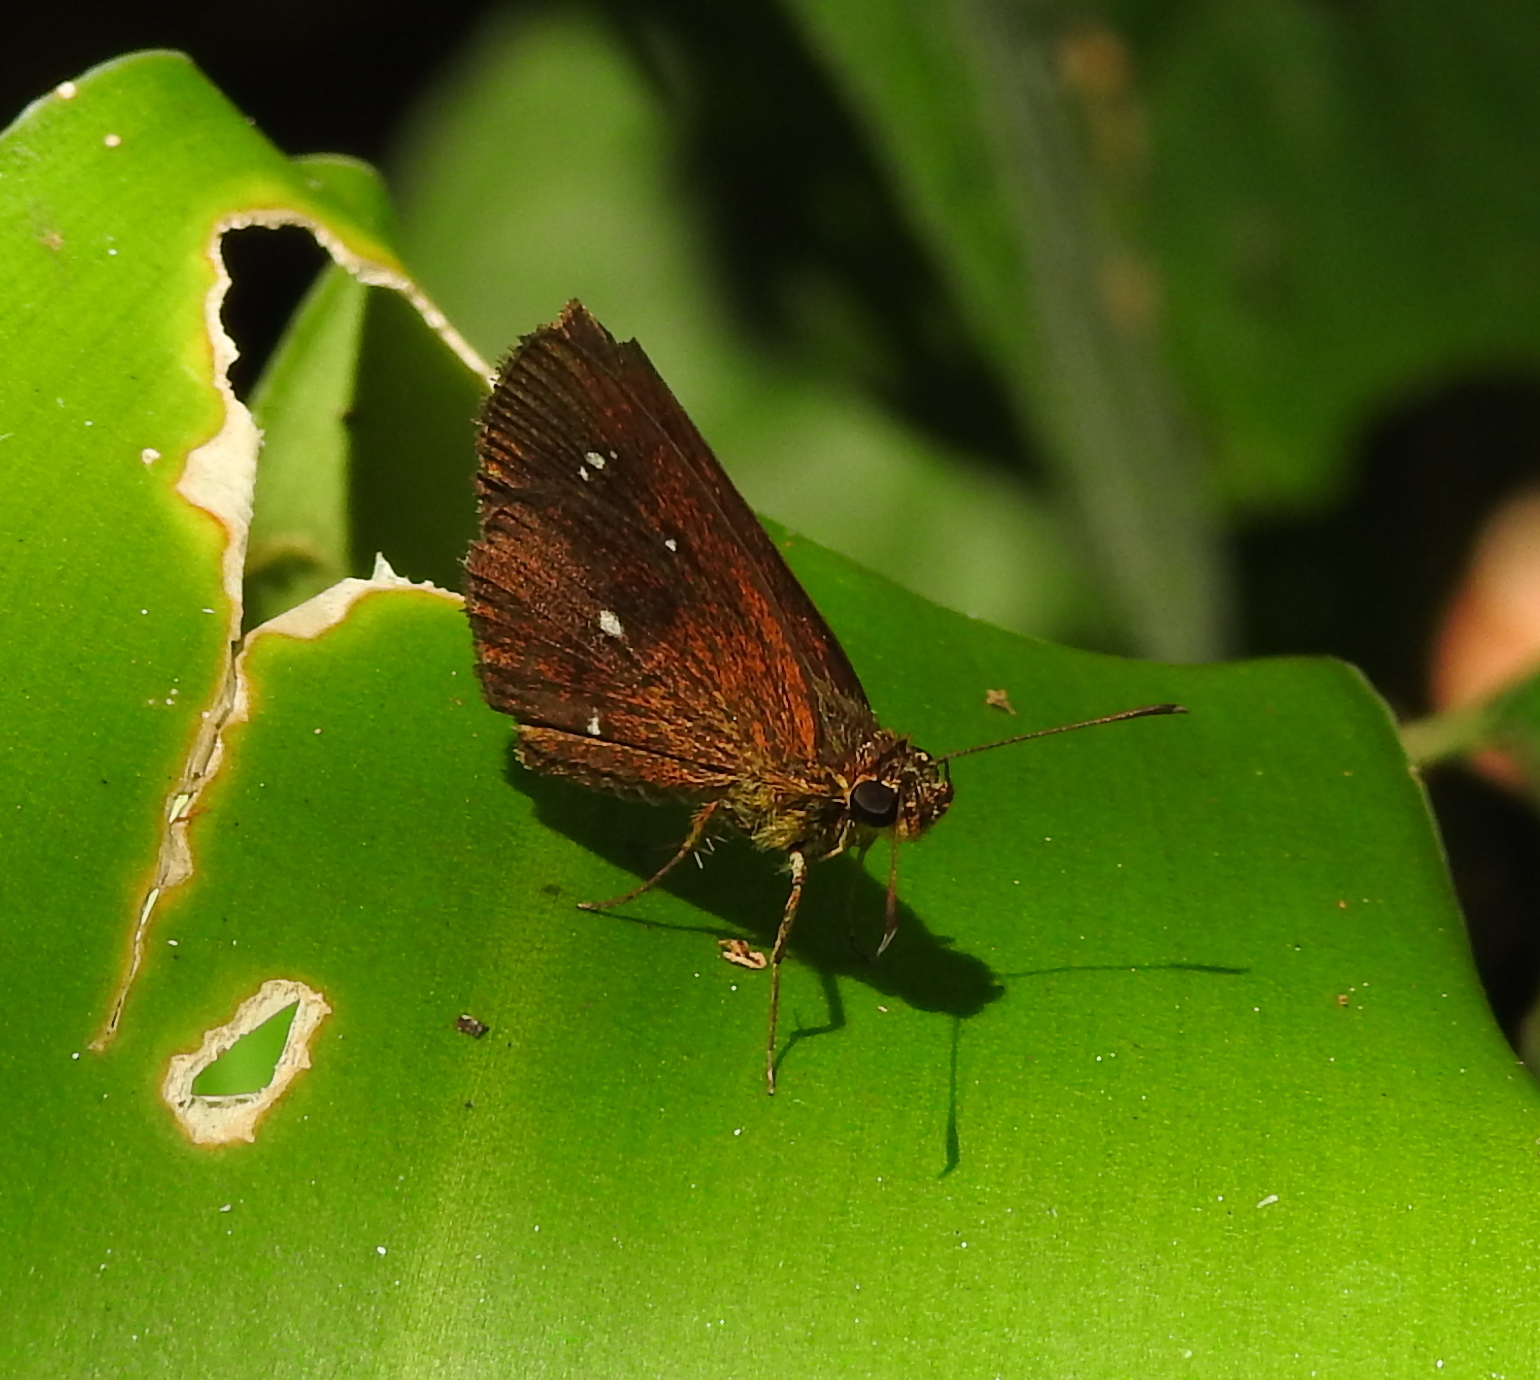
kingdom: Animalia
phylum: Arthropoda
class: Insecta
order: Lepidoptera
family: Hesperiidae
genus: Iambrix
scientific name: Iambrix salsala
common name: Chestnut bob
